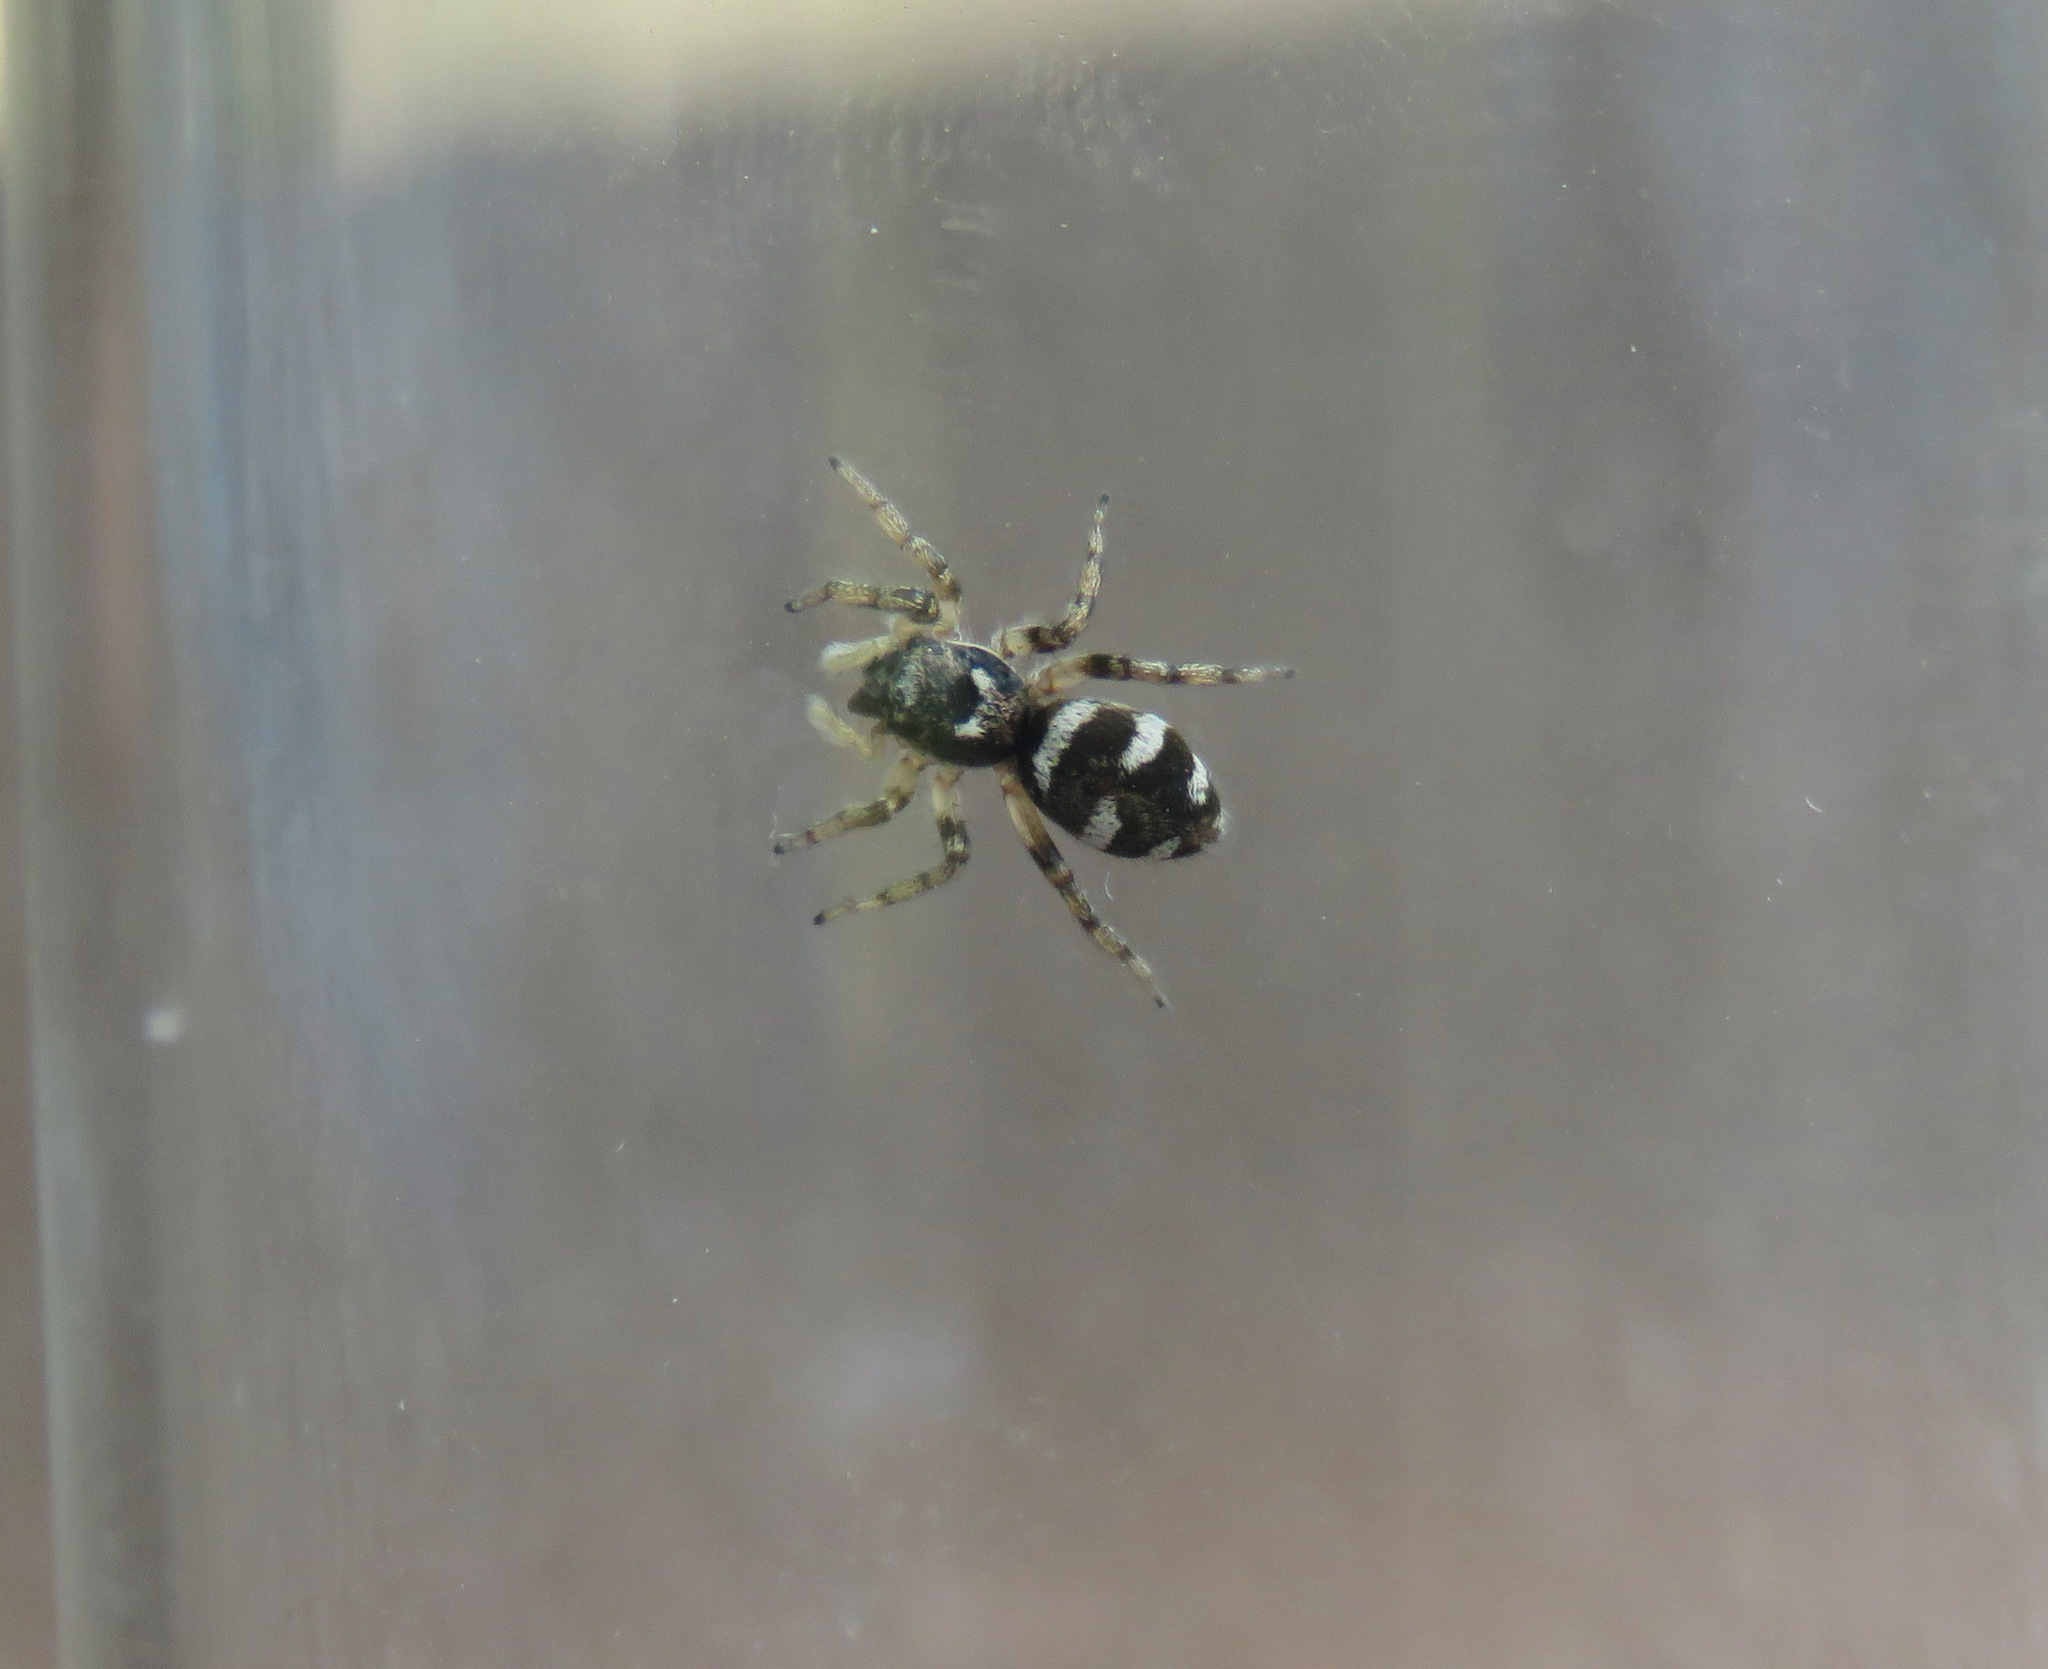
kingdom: Animalia
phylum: Arthropoda
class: Arachnida
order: Araneae
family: Salticidae
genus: Salticus
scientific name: Salticus scenicus
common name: Zebra jumper
